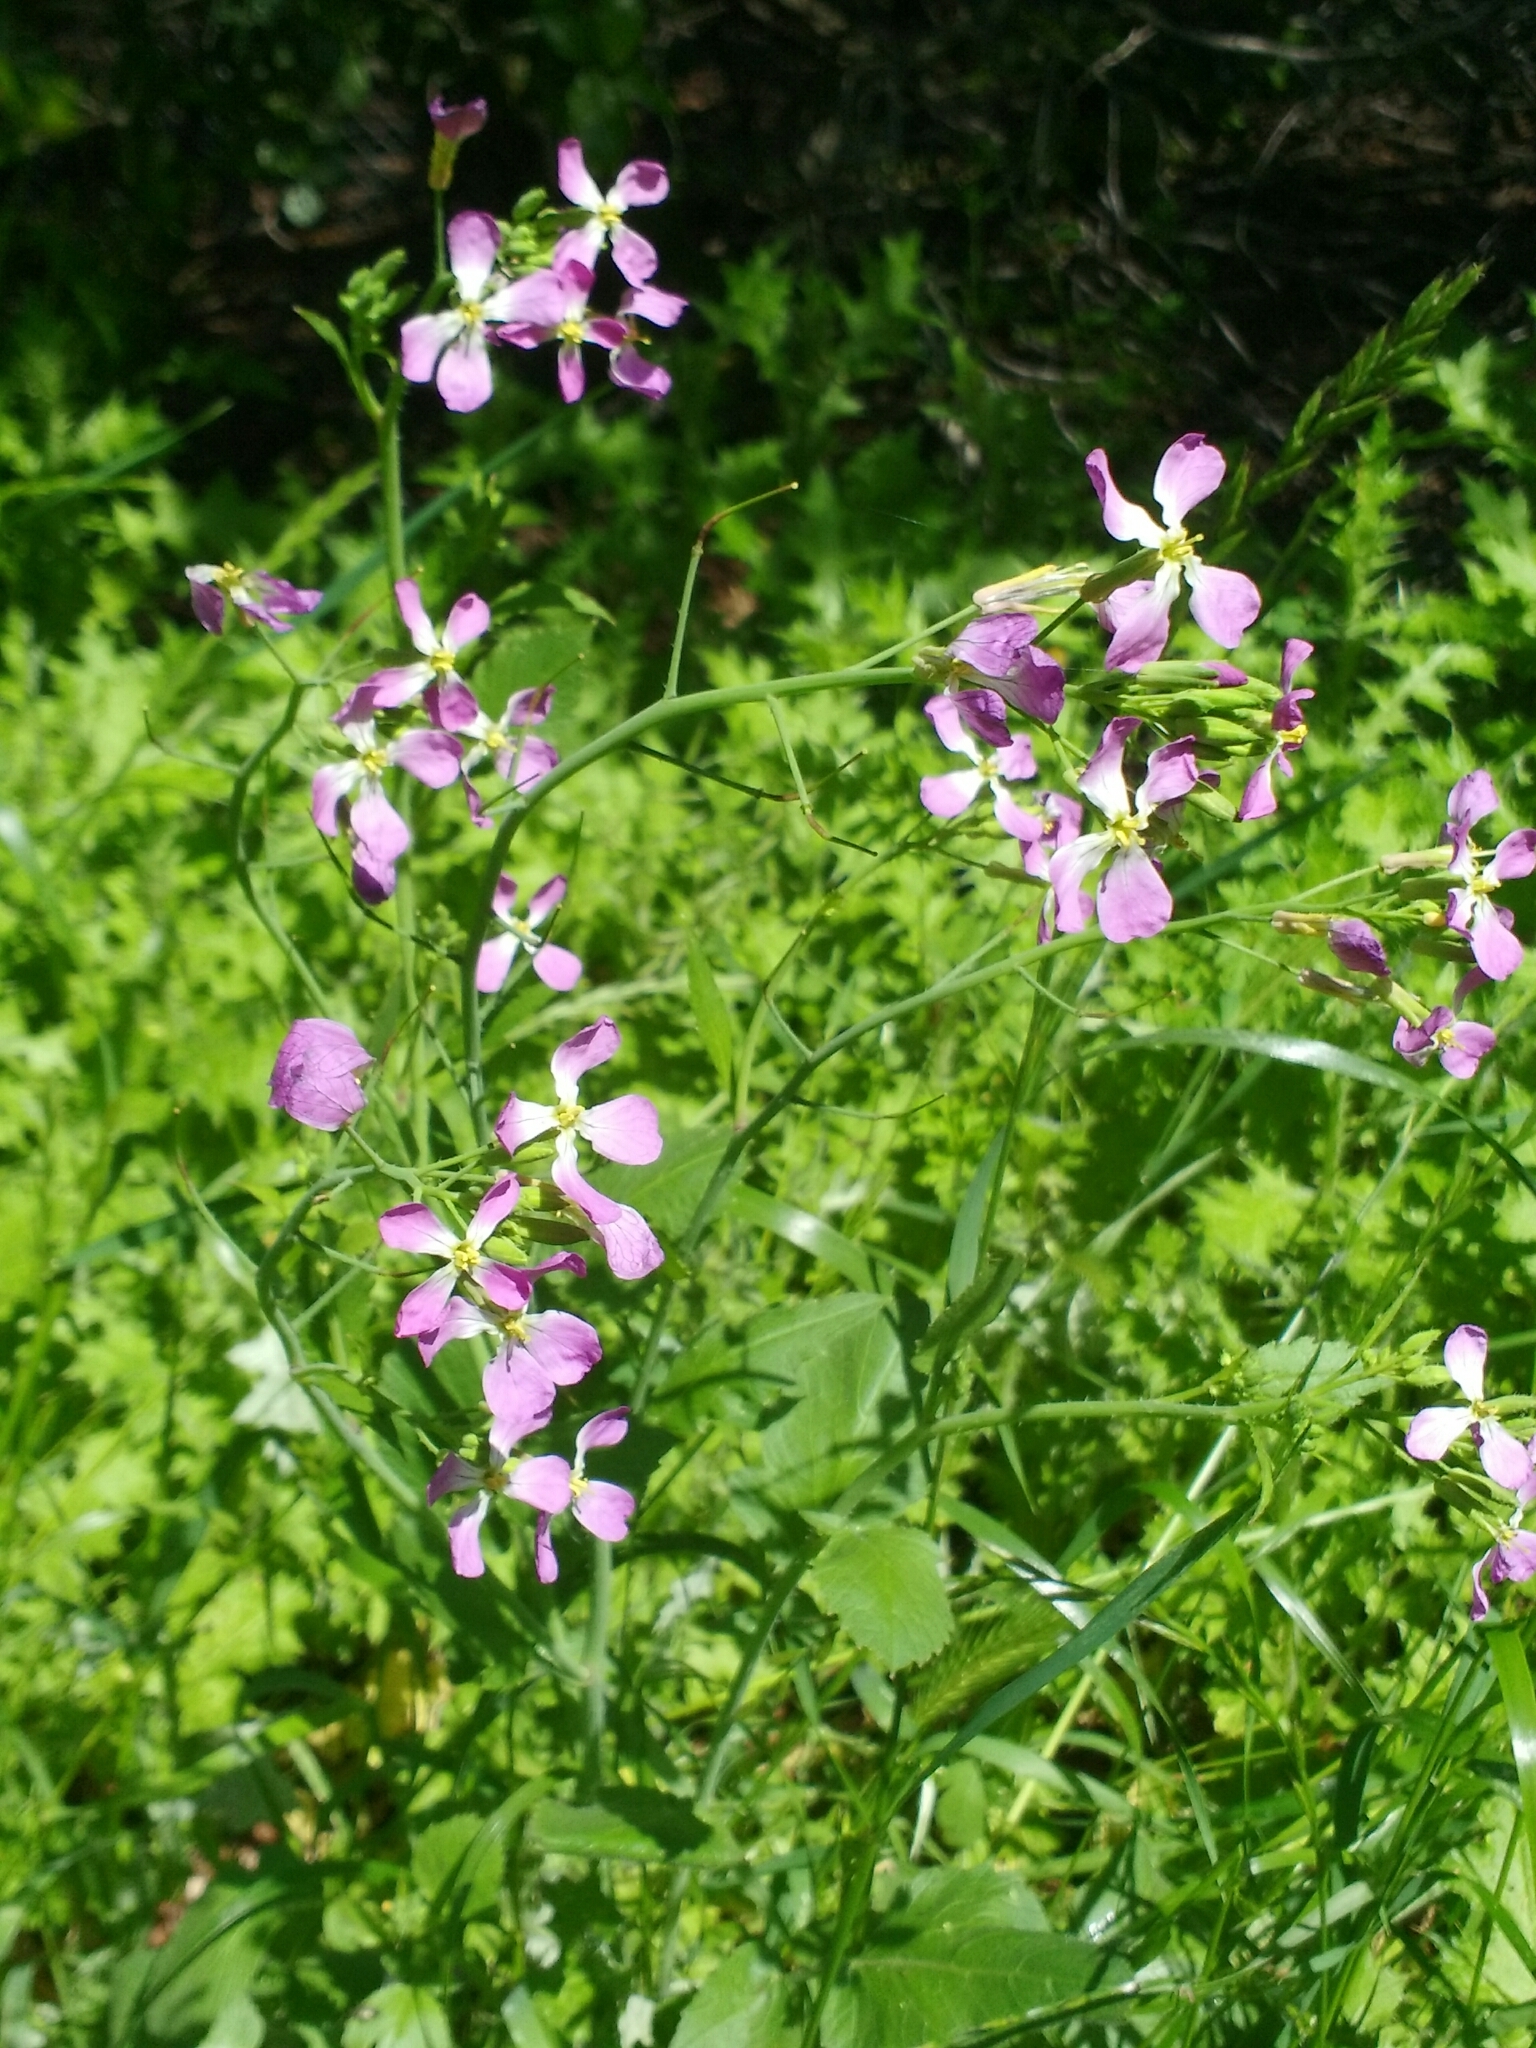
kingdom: Plantae
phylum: Tracheophyta
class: Magnoliopsida
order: Brassicales
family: Brassicaceae
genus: Raphanus
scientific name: Raphanus sativus
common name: Cultivated radish
